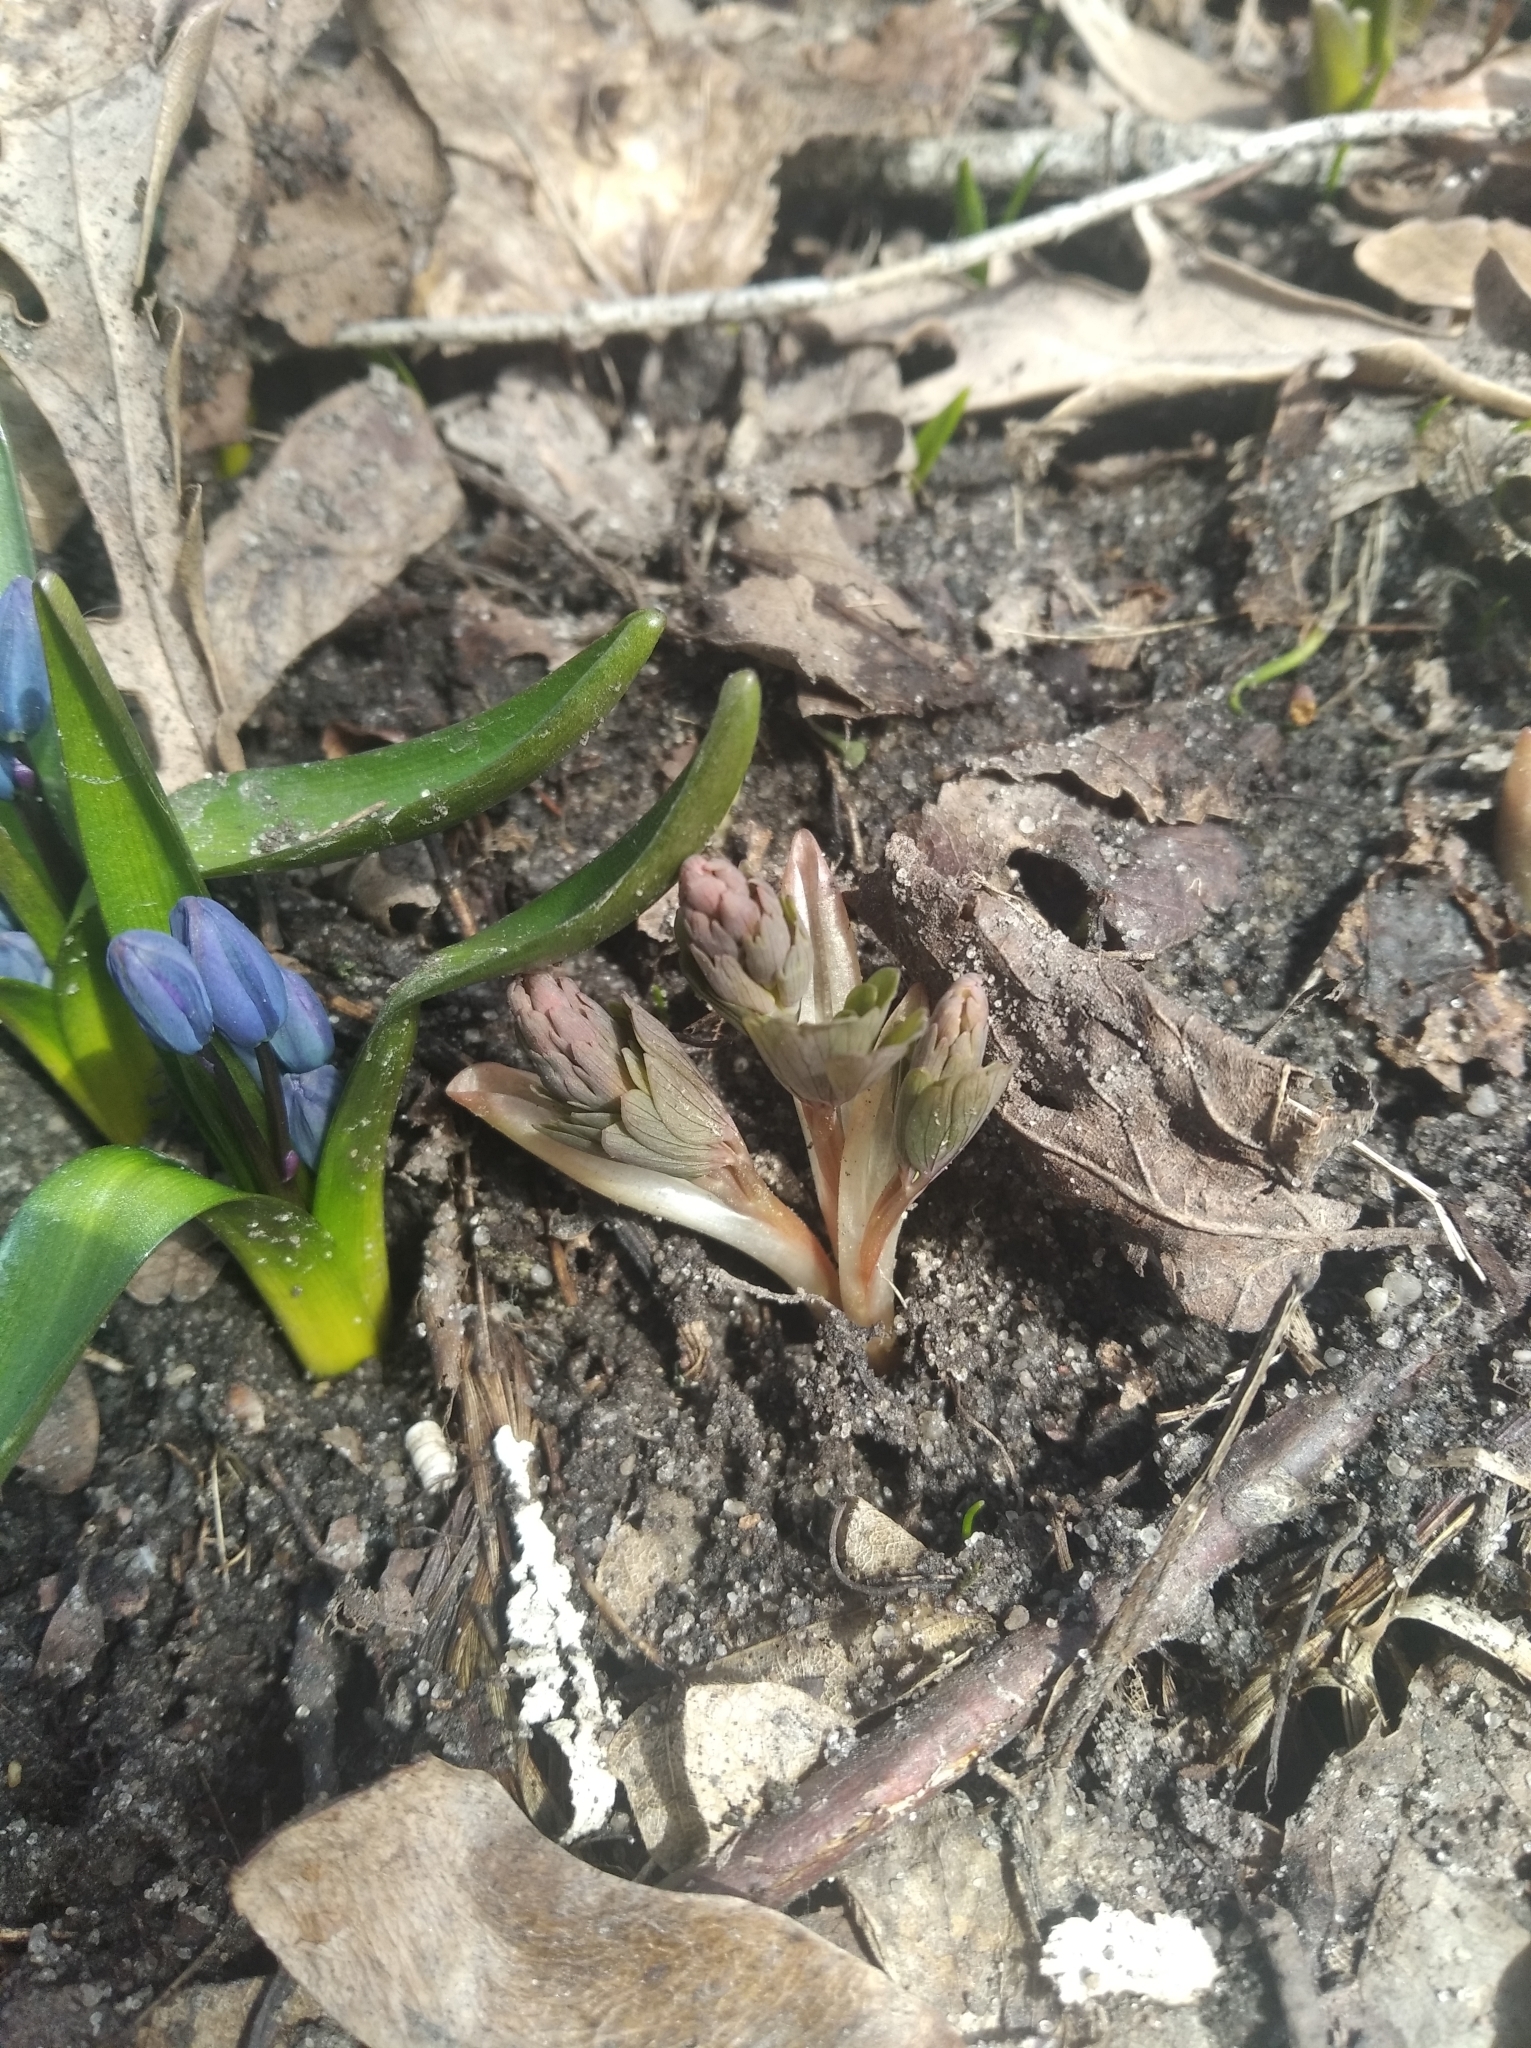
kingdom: Plantae
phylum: Tracheophyta
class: Magnoliopsida
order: Ranunculales
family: Papaveraceae
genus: Corydalis
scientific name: Corydalis solida
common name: Bird-in-a-bush
